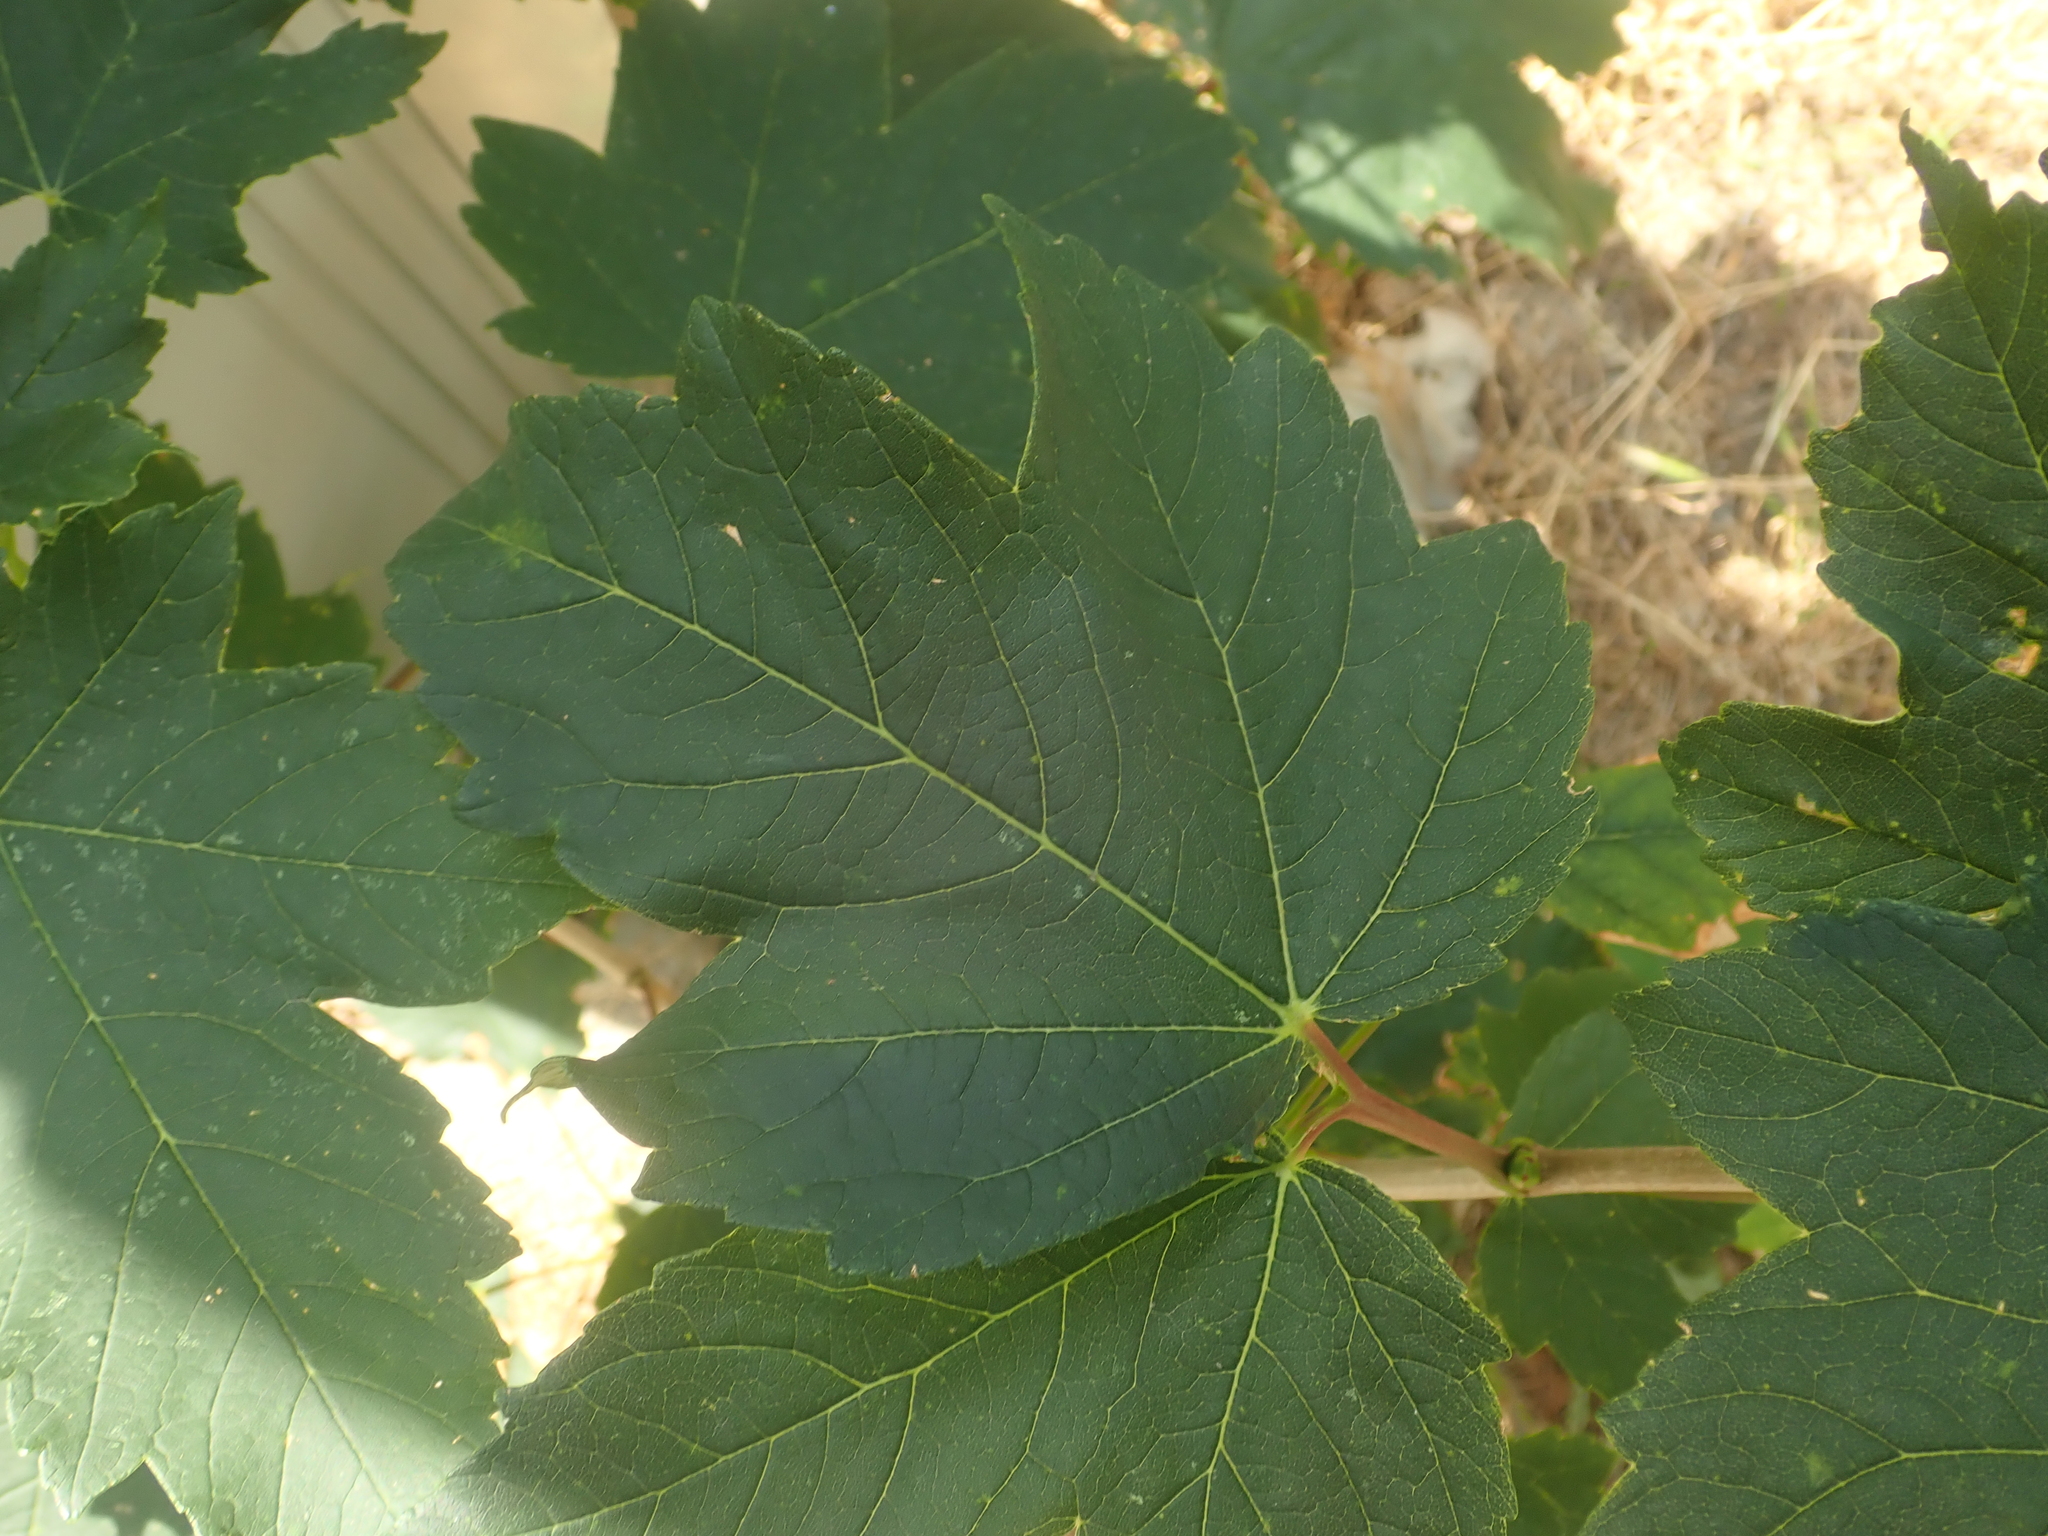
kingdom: Plantae
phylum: Tracheophyta
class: Magnoliopsida
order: Sapindales
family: Sapindaceae
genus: Acer
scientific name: Acer pseudoplatanus
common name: Sycamore
